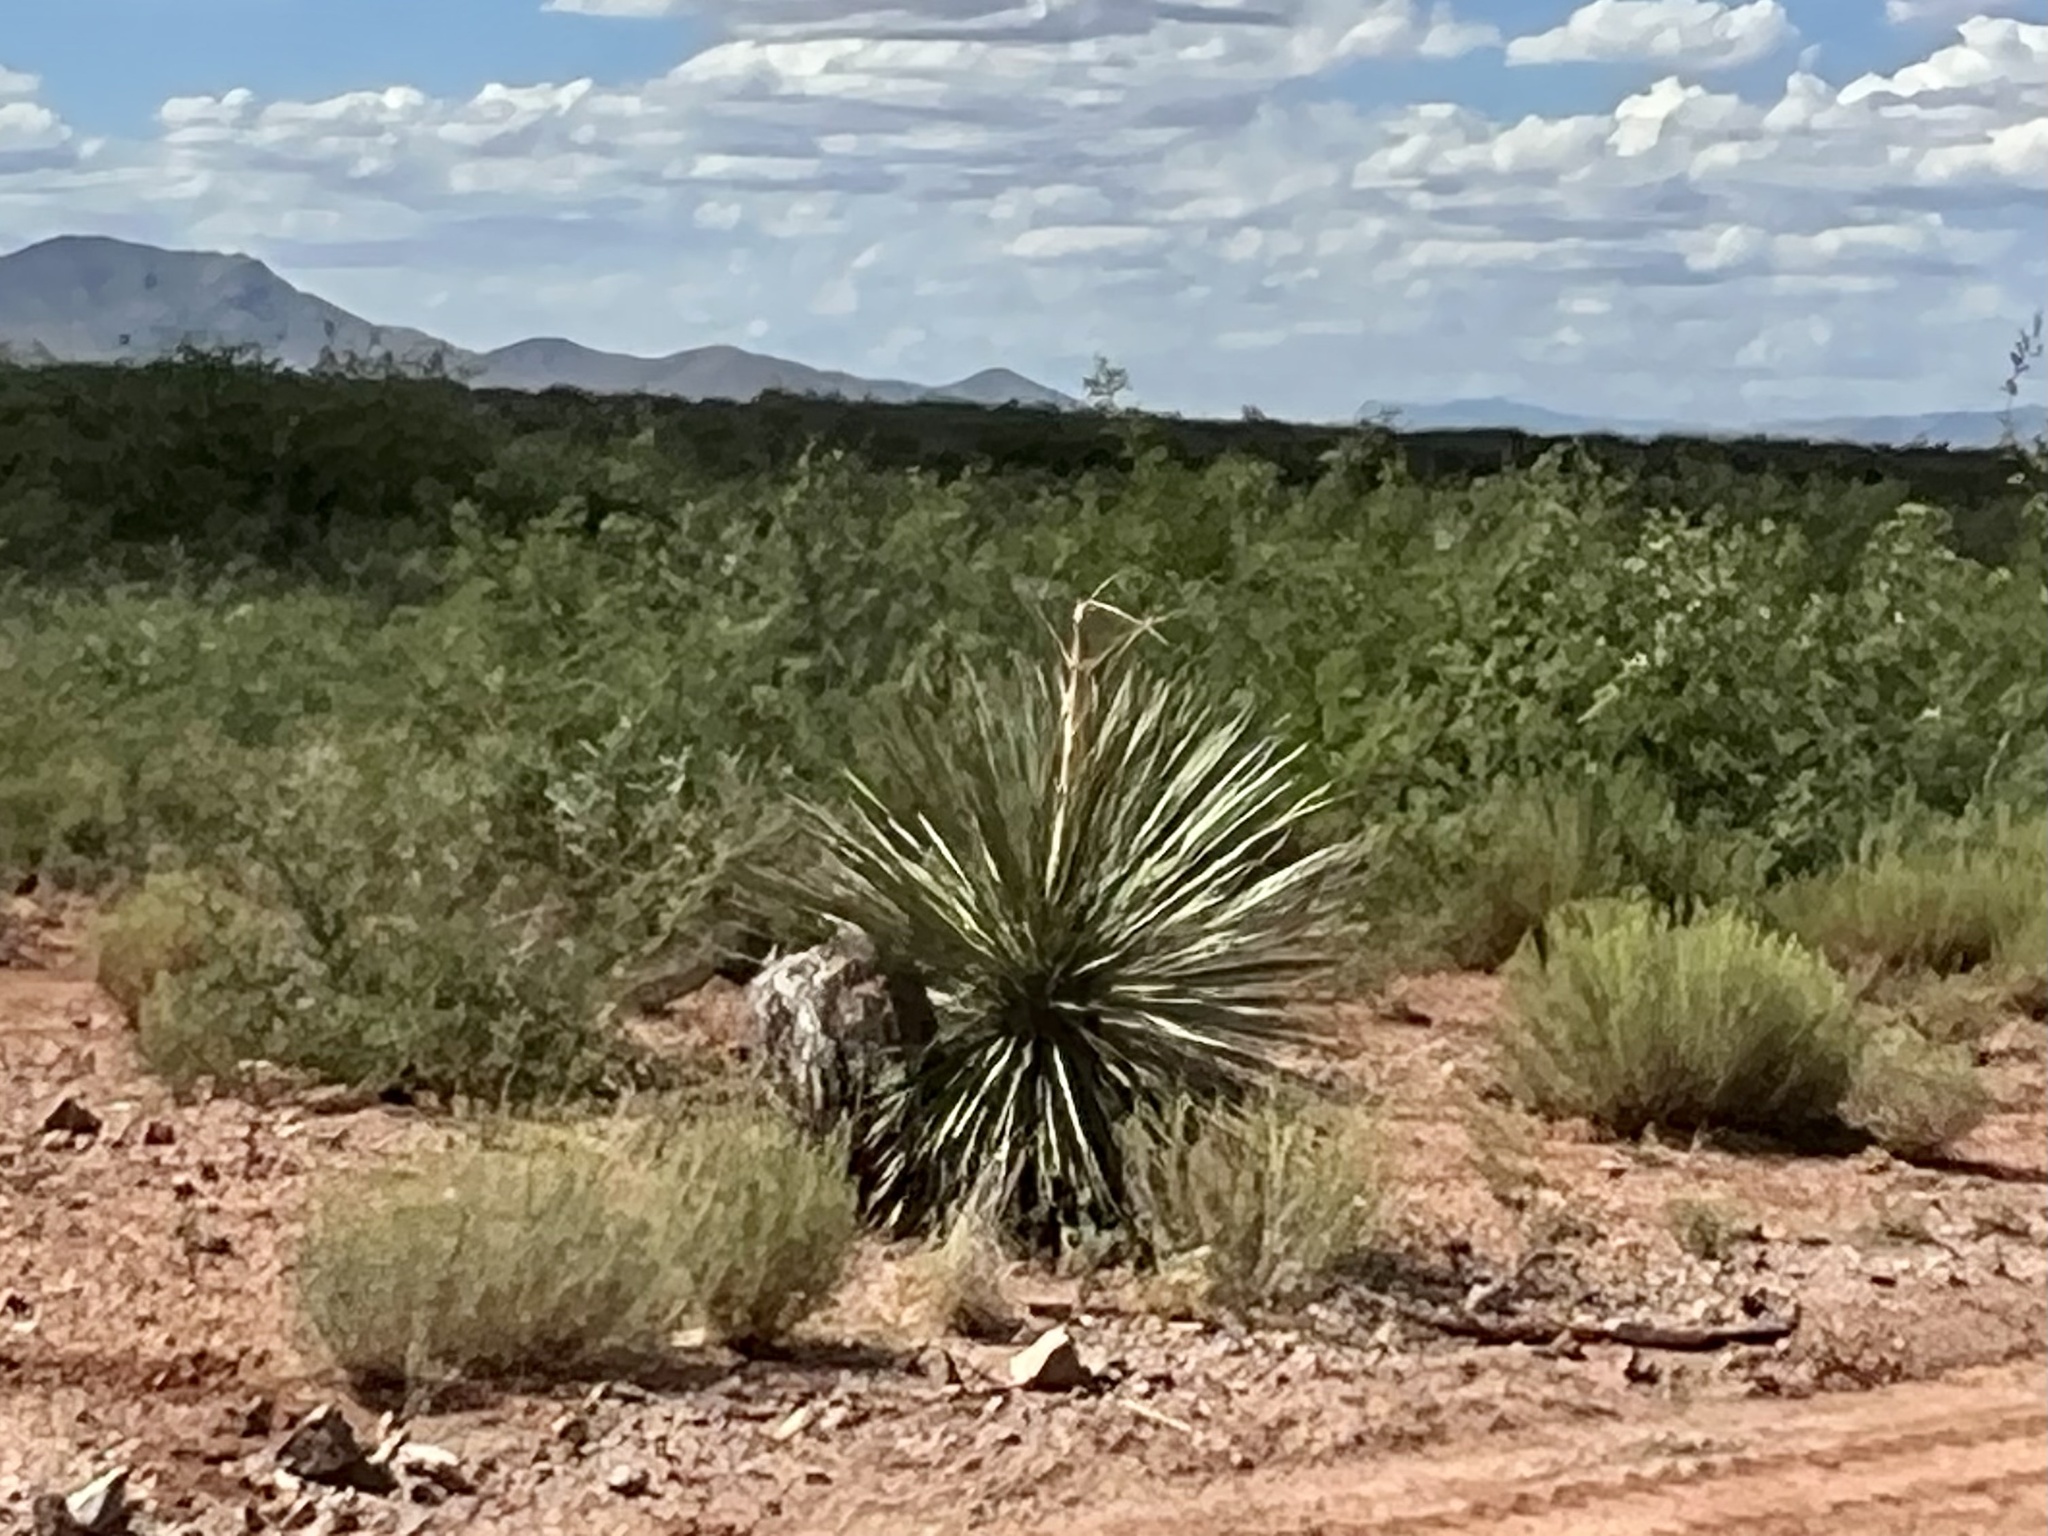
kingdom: Plantae
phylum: Tracheophyta
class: Liliopsida
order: Asparagales
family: Asparagaceae
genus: Yucca
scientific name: Yucca elata
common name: Palmella
